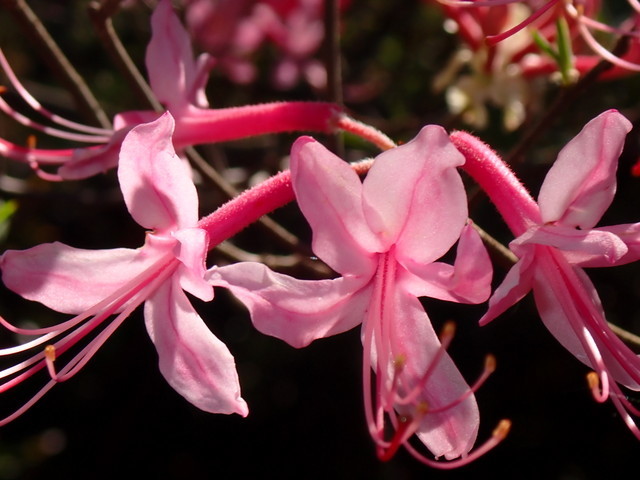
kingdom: Plantae
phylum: Tracheophyta
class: Magnoliopsida
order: Ericales
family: Ericaceae
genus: Rhododendron
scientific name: Rhododendron canescens
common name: Mountain azalea
